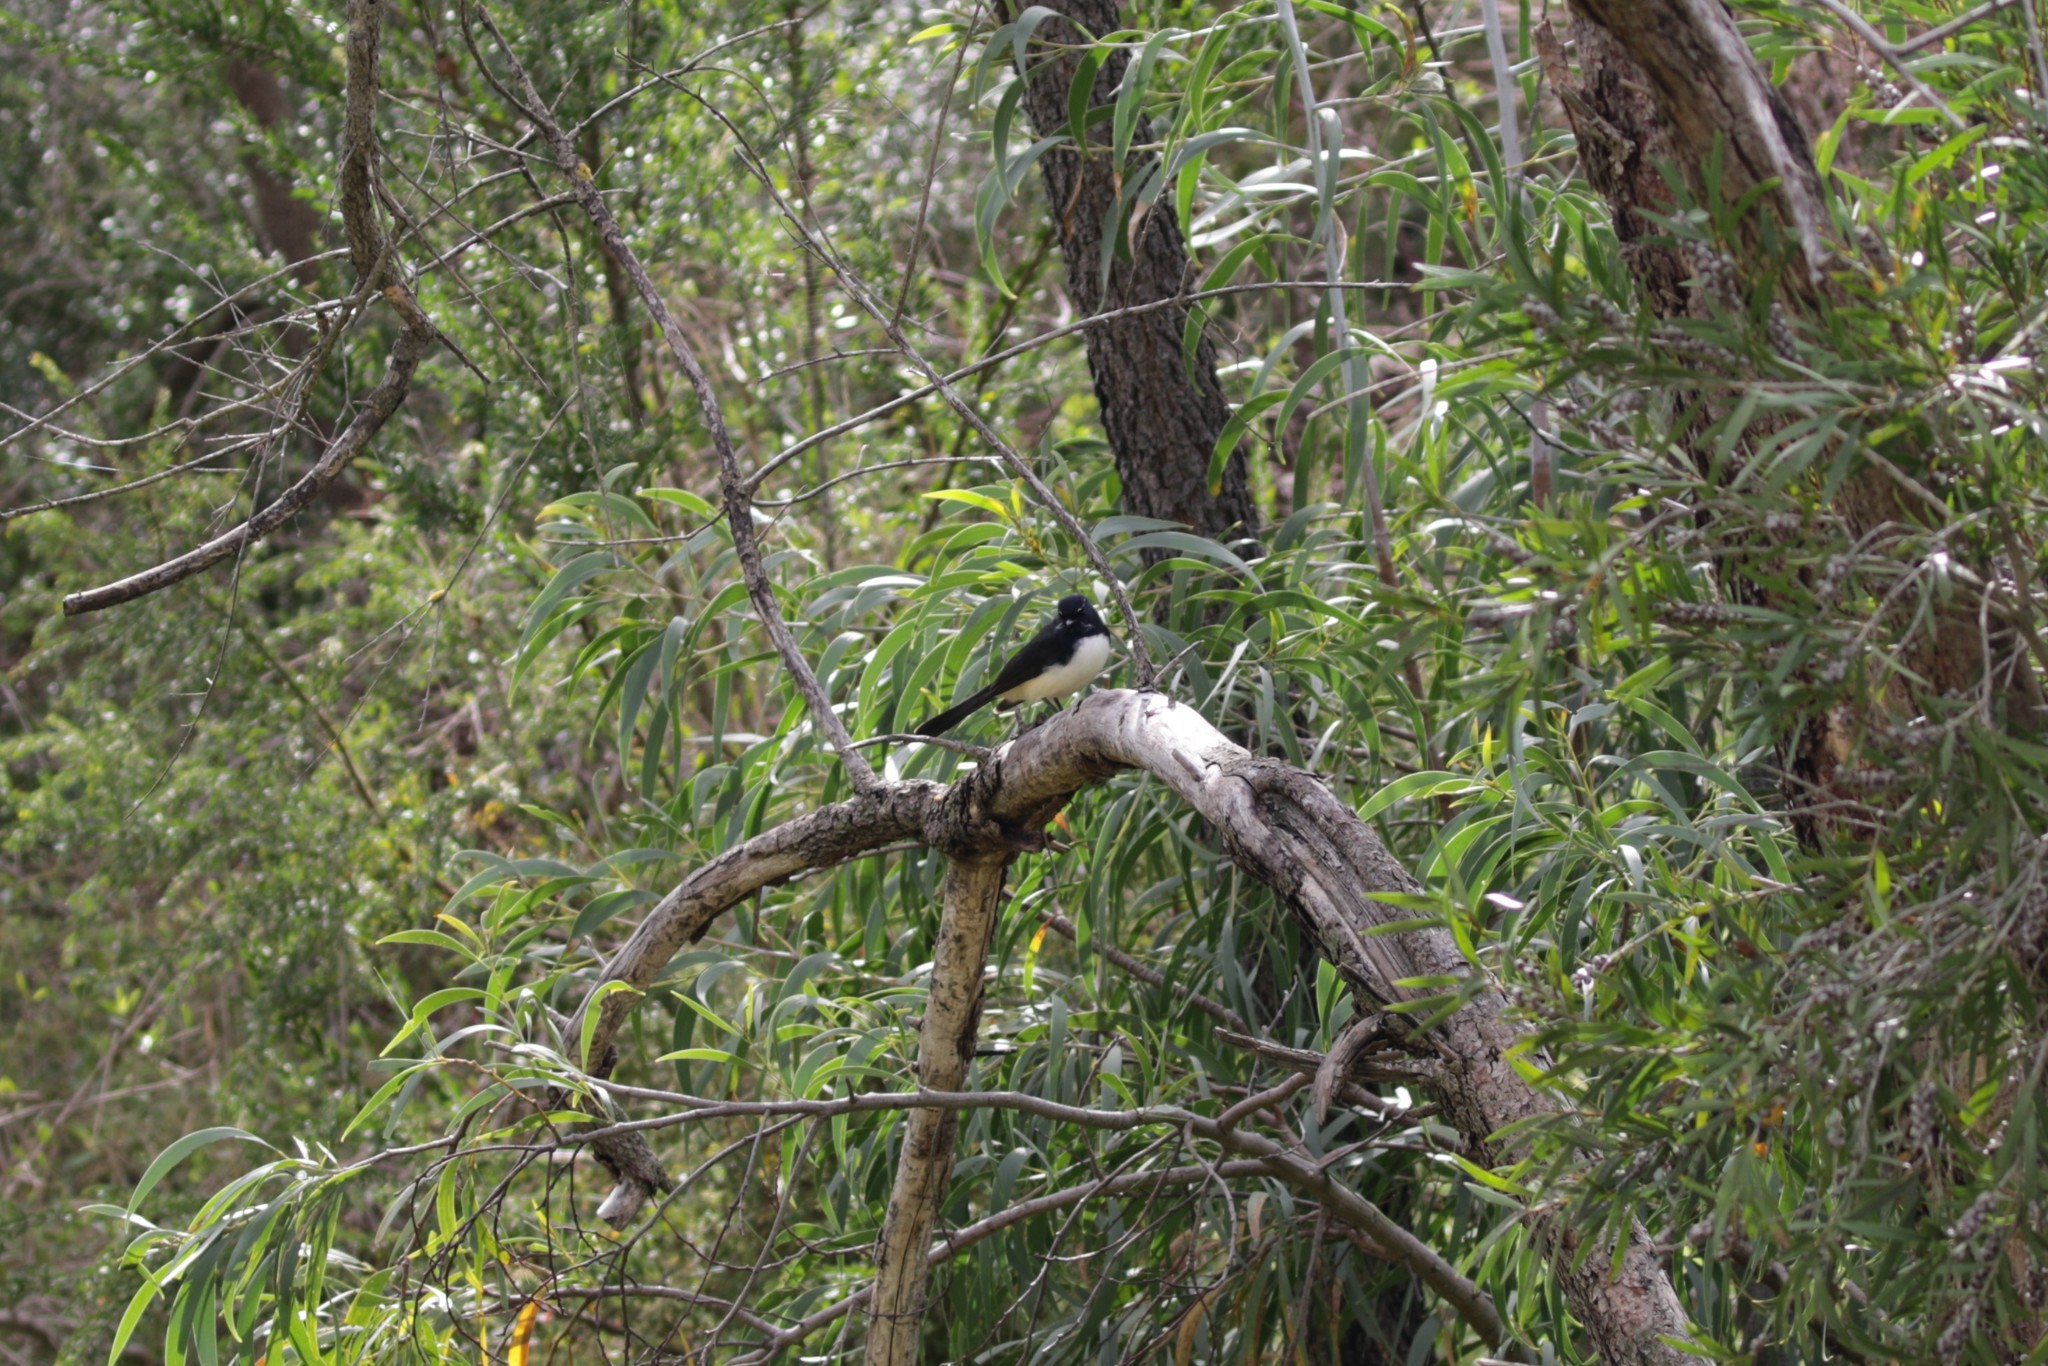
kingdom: Animalia
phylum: Chordata
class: Aves
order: Passeriformes
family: Rhipiduridae
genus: Rhipidura
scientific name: Rhipidura leucophrys
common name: Willie wagtail
